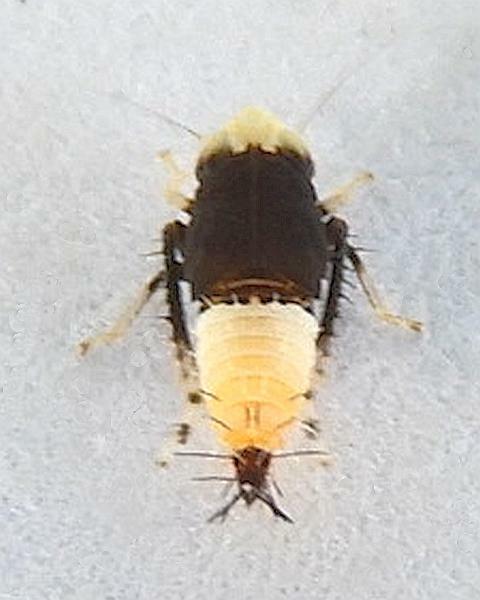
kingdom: Animalia
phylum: Arthropoda
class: Insecta
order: Hemiptera
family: Cicadellidae
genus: Scaphoideus
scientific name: Scaphoideus incisus
